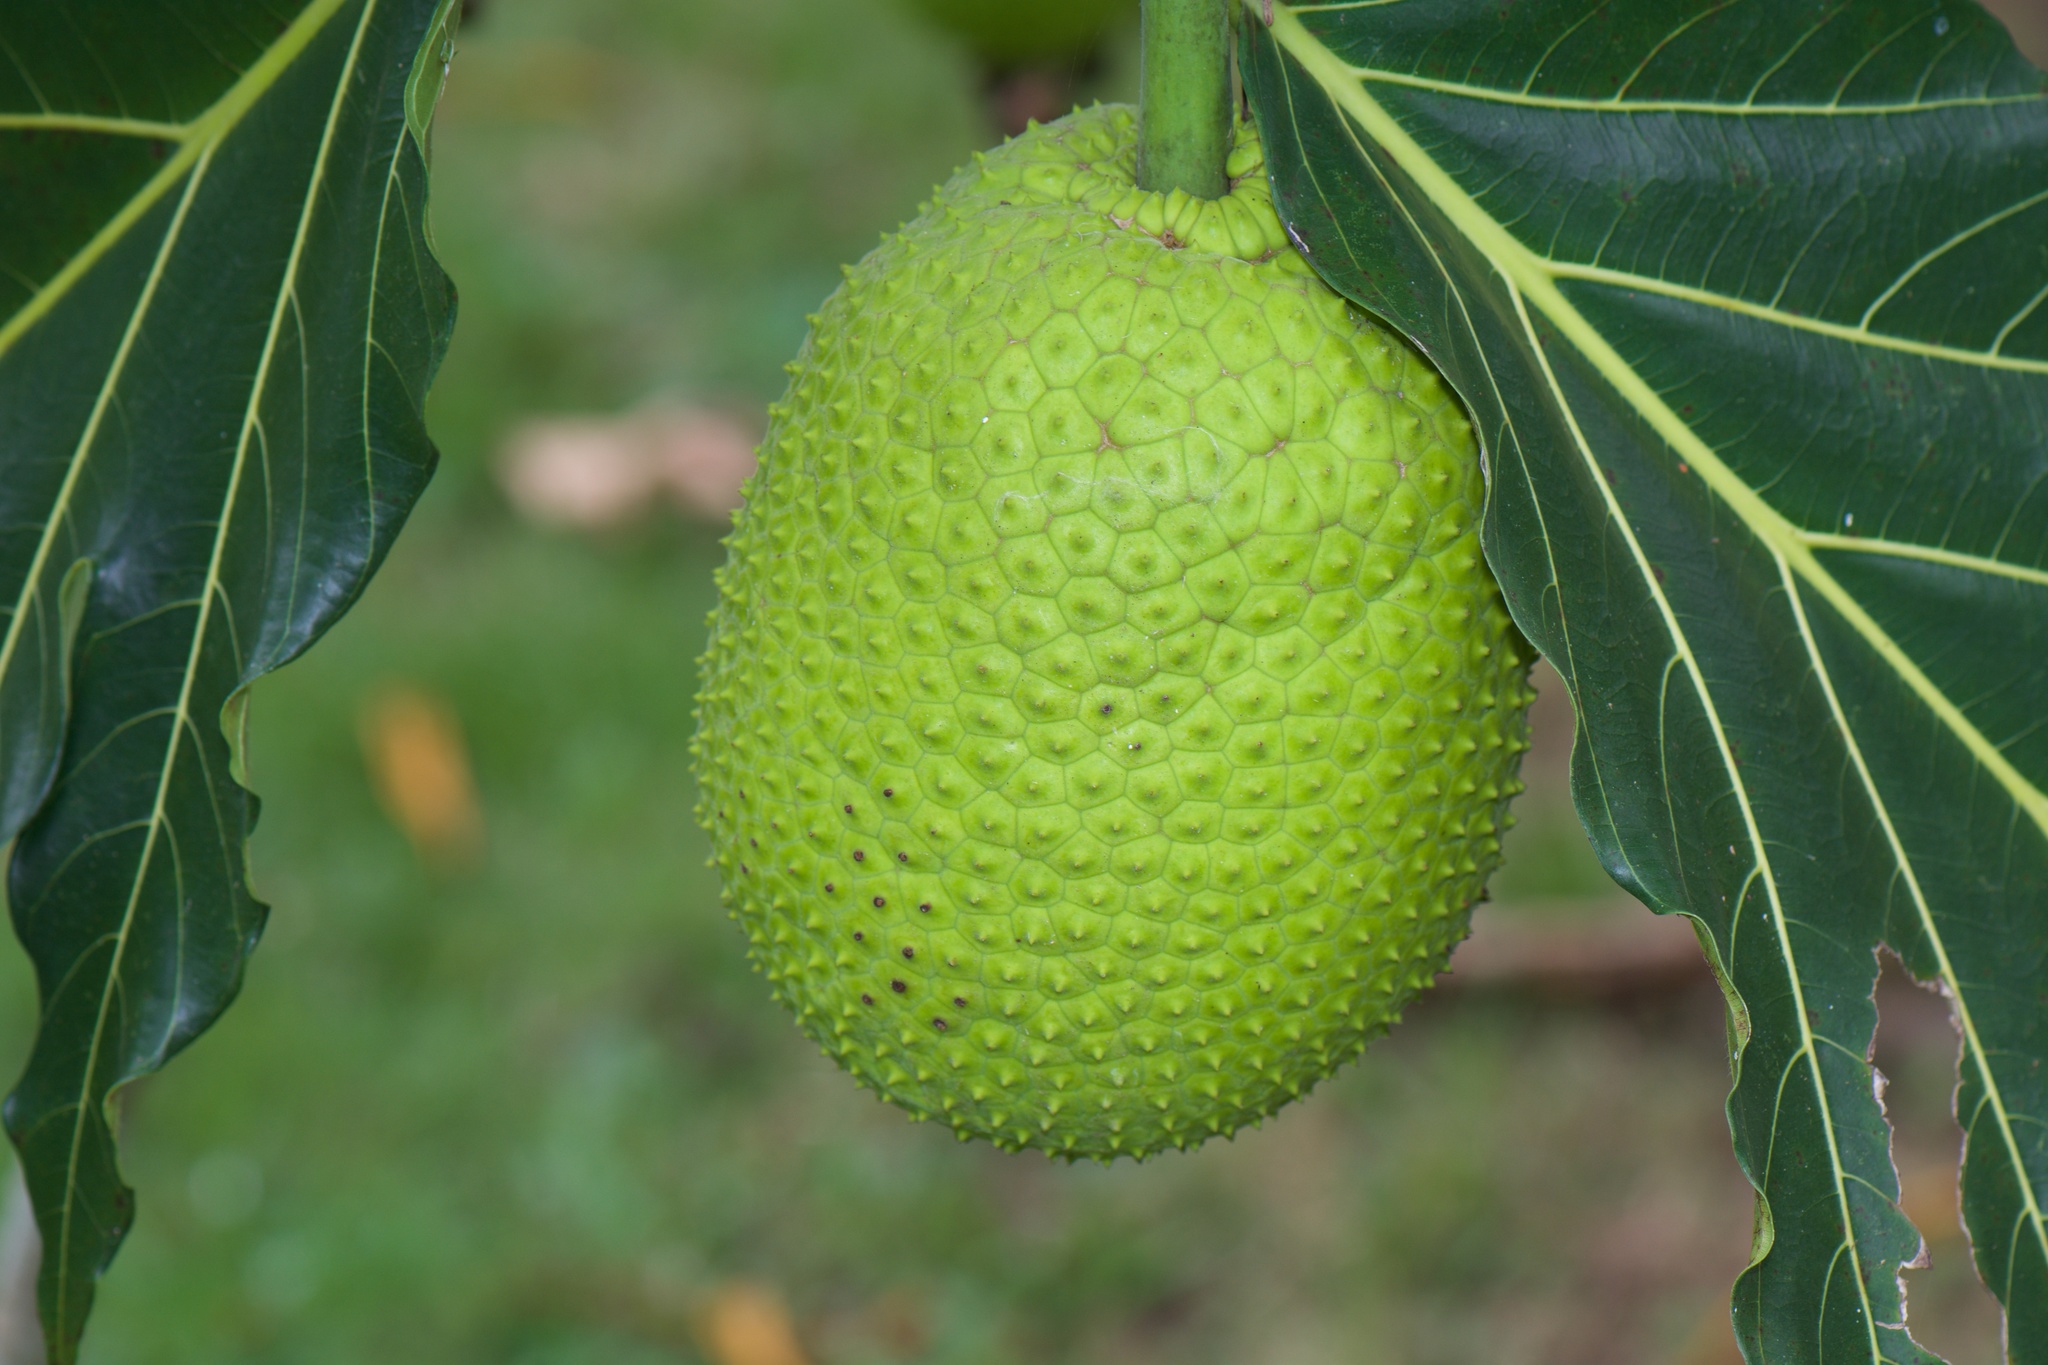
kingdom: Plantae
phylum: Tracheophyta
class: Magnoliopsida
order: Rosales
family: Moraceae
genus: Artocarpus
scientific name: Artocarpus altilis
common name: Breadfruit
